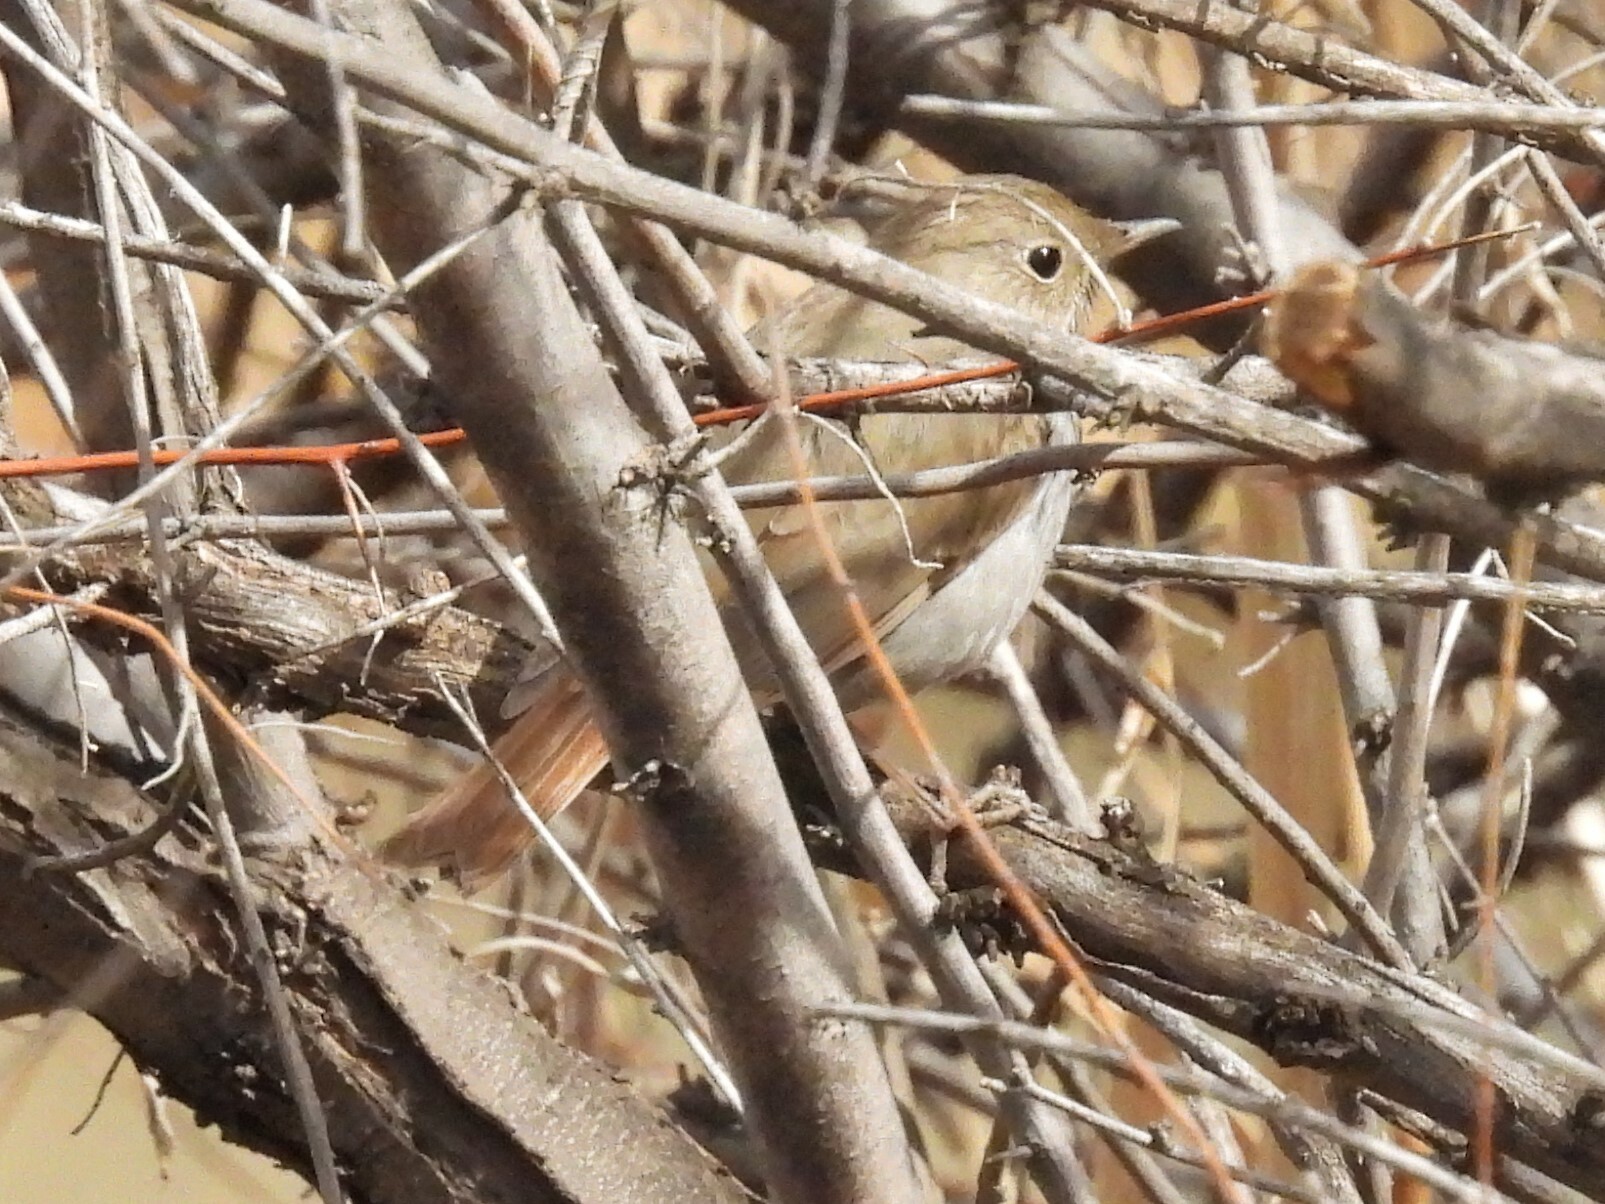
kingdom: Animalia
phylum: Chordata
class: Aves
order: Passeriformes
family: Turdidae
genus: Catharus
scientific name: Catharus guttatus
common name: Hermit thrush
